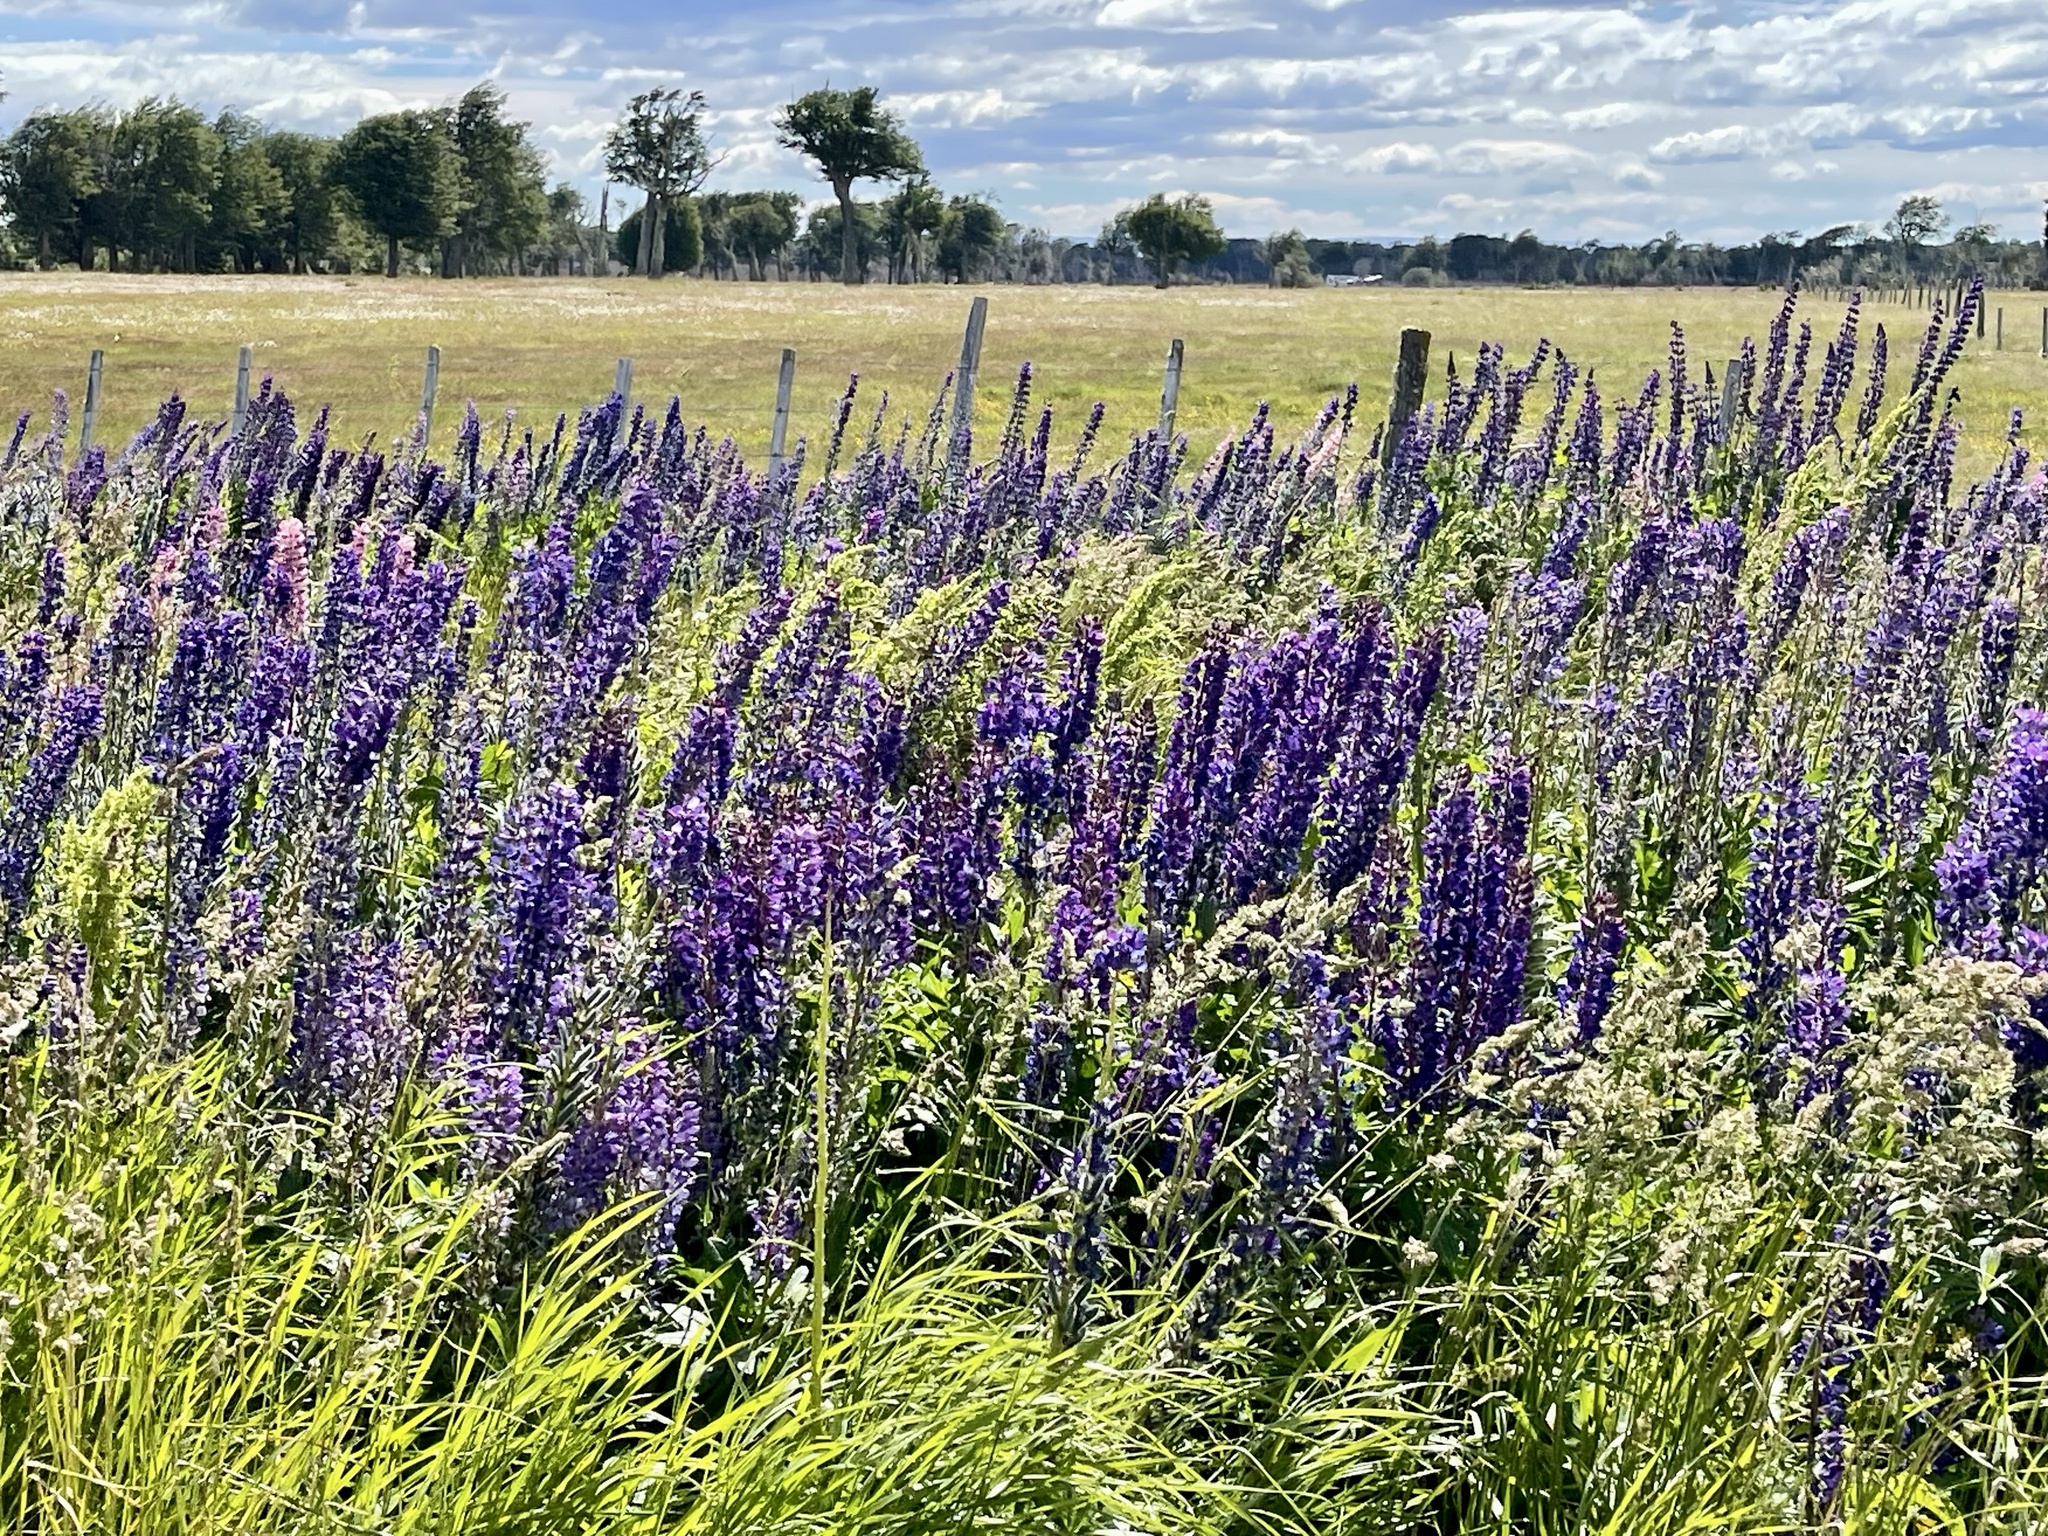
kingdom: Plantae
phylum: Tracheophyta
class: Magnoliopsida
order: Fabales
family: Fabaceae
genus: Lupinus
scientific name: Lupinus polyphyllus
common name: Garden lupin
